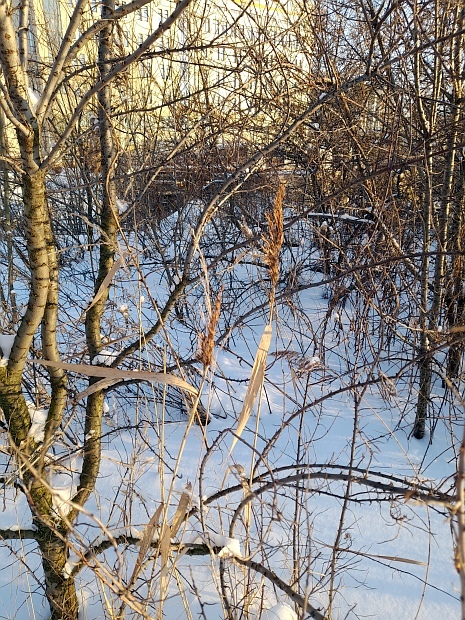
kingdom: Plantae
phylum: Tracheophyta
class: Liliopsida
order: Poales
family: Poaceae
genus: Phragmites
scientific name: Phragmites australis
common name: Common reed
